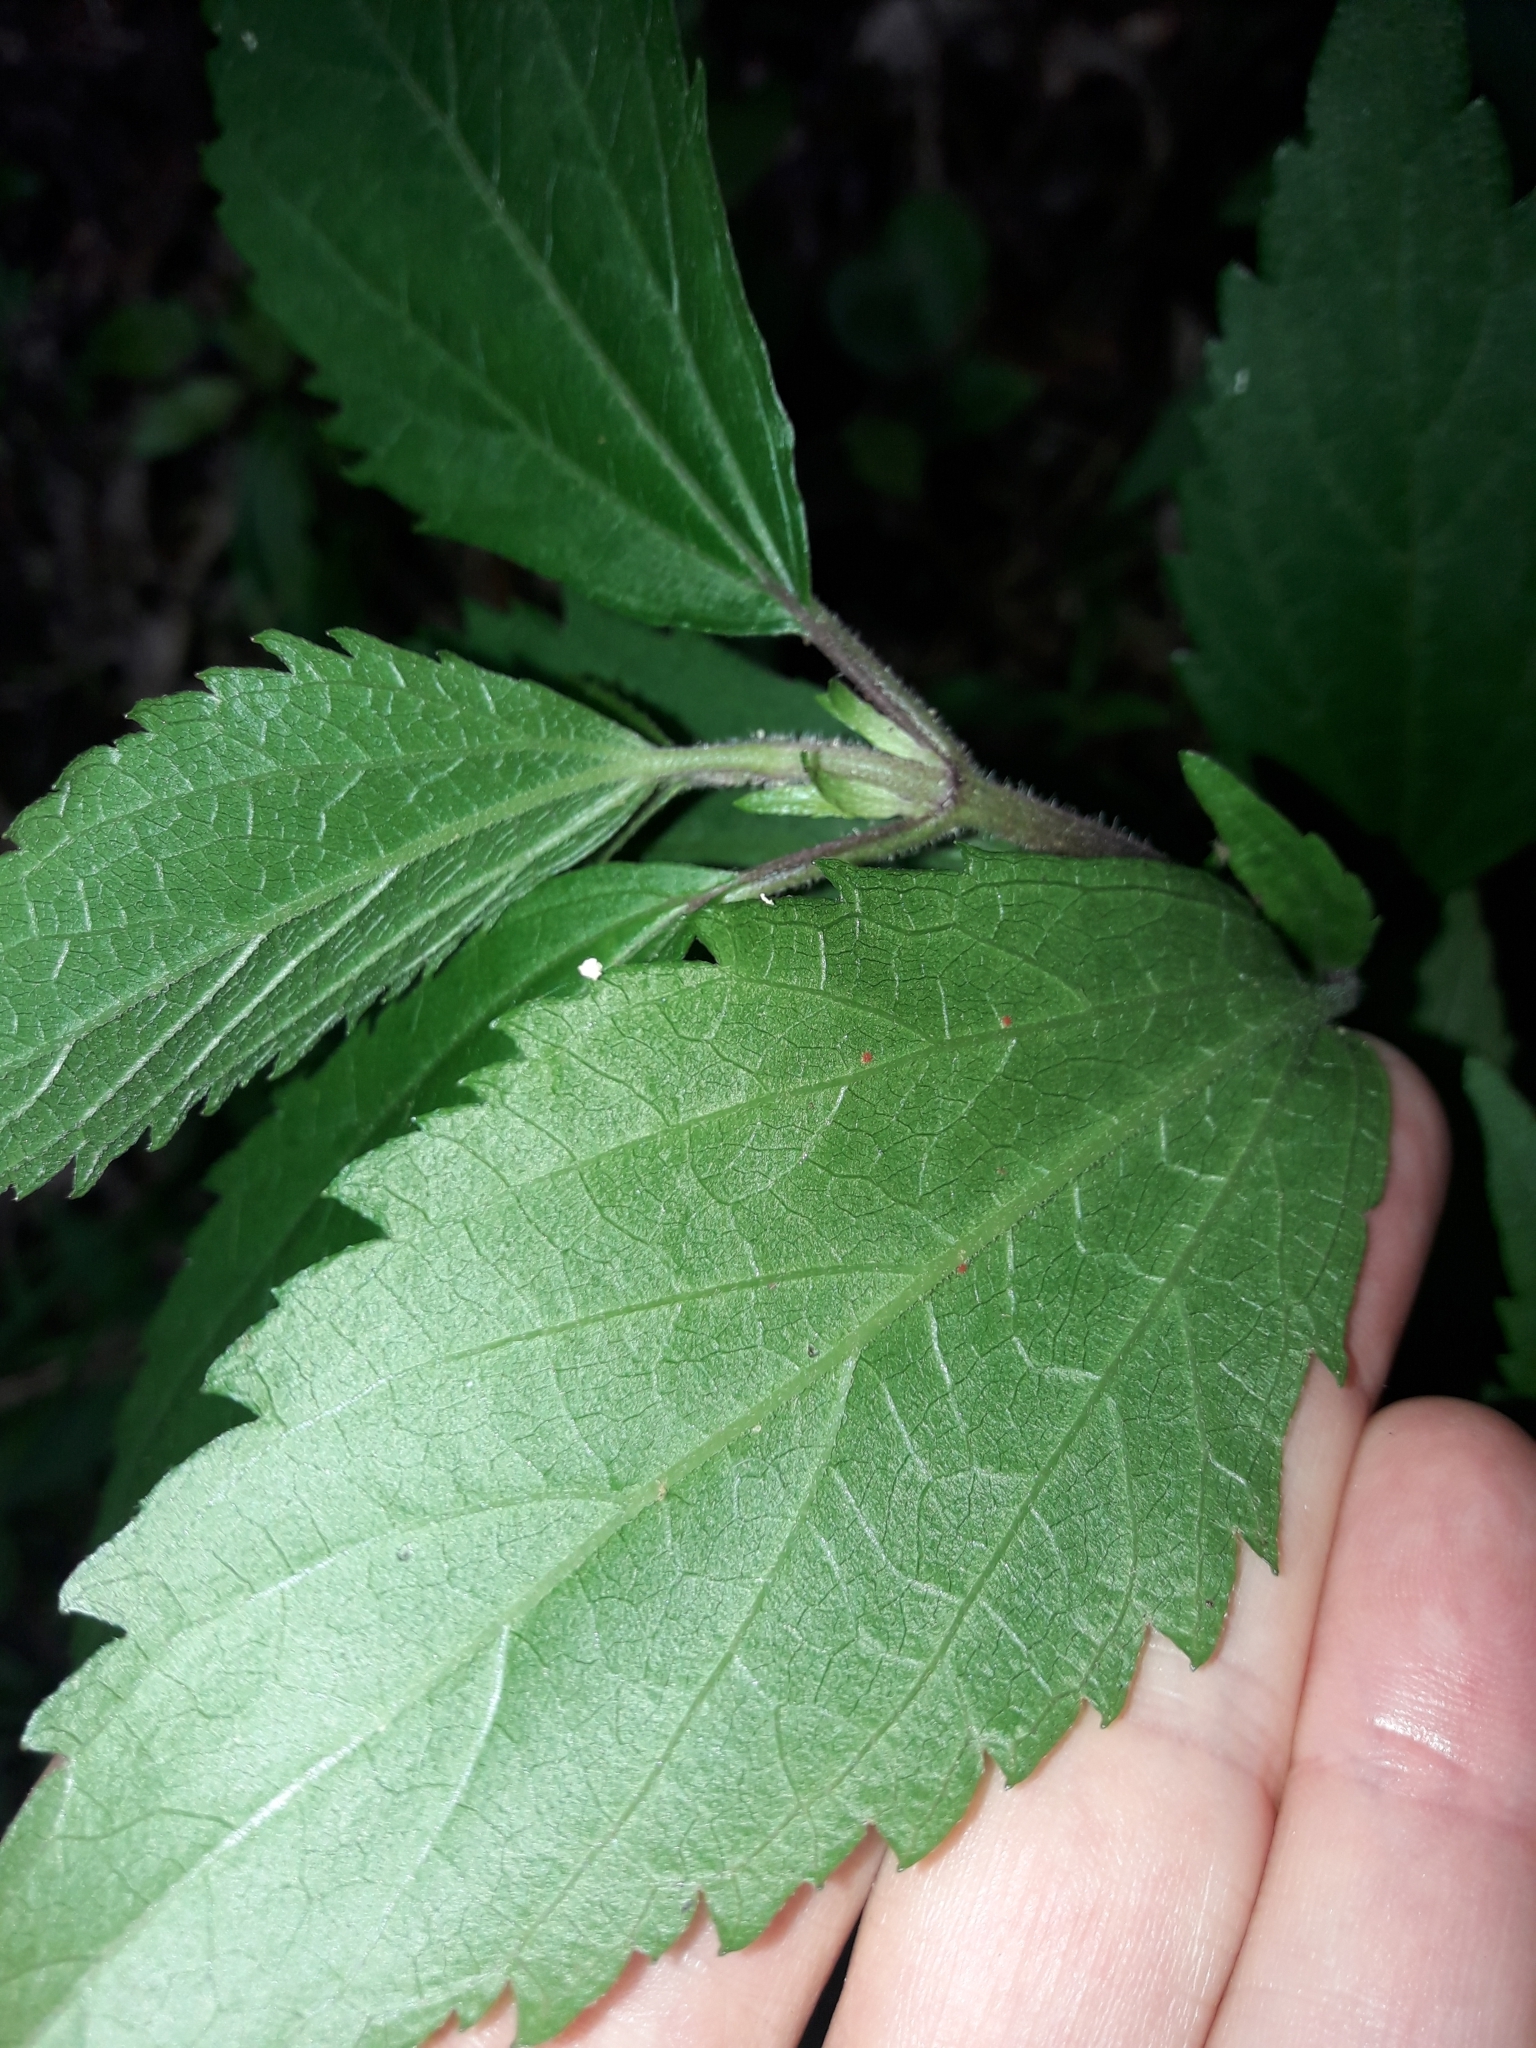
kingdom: Plantae
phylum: Tracheophyta
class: Magnoliopsida
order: Asterales
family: Asteraceae
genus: Ageratina
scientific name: Ageratina riparia
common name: Creeping croftonweed
